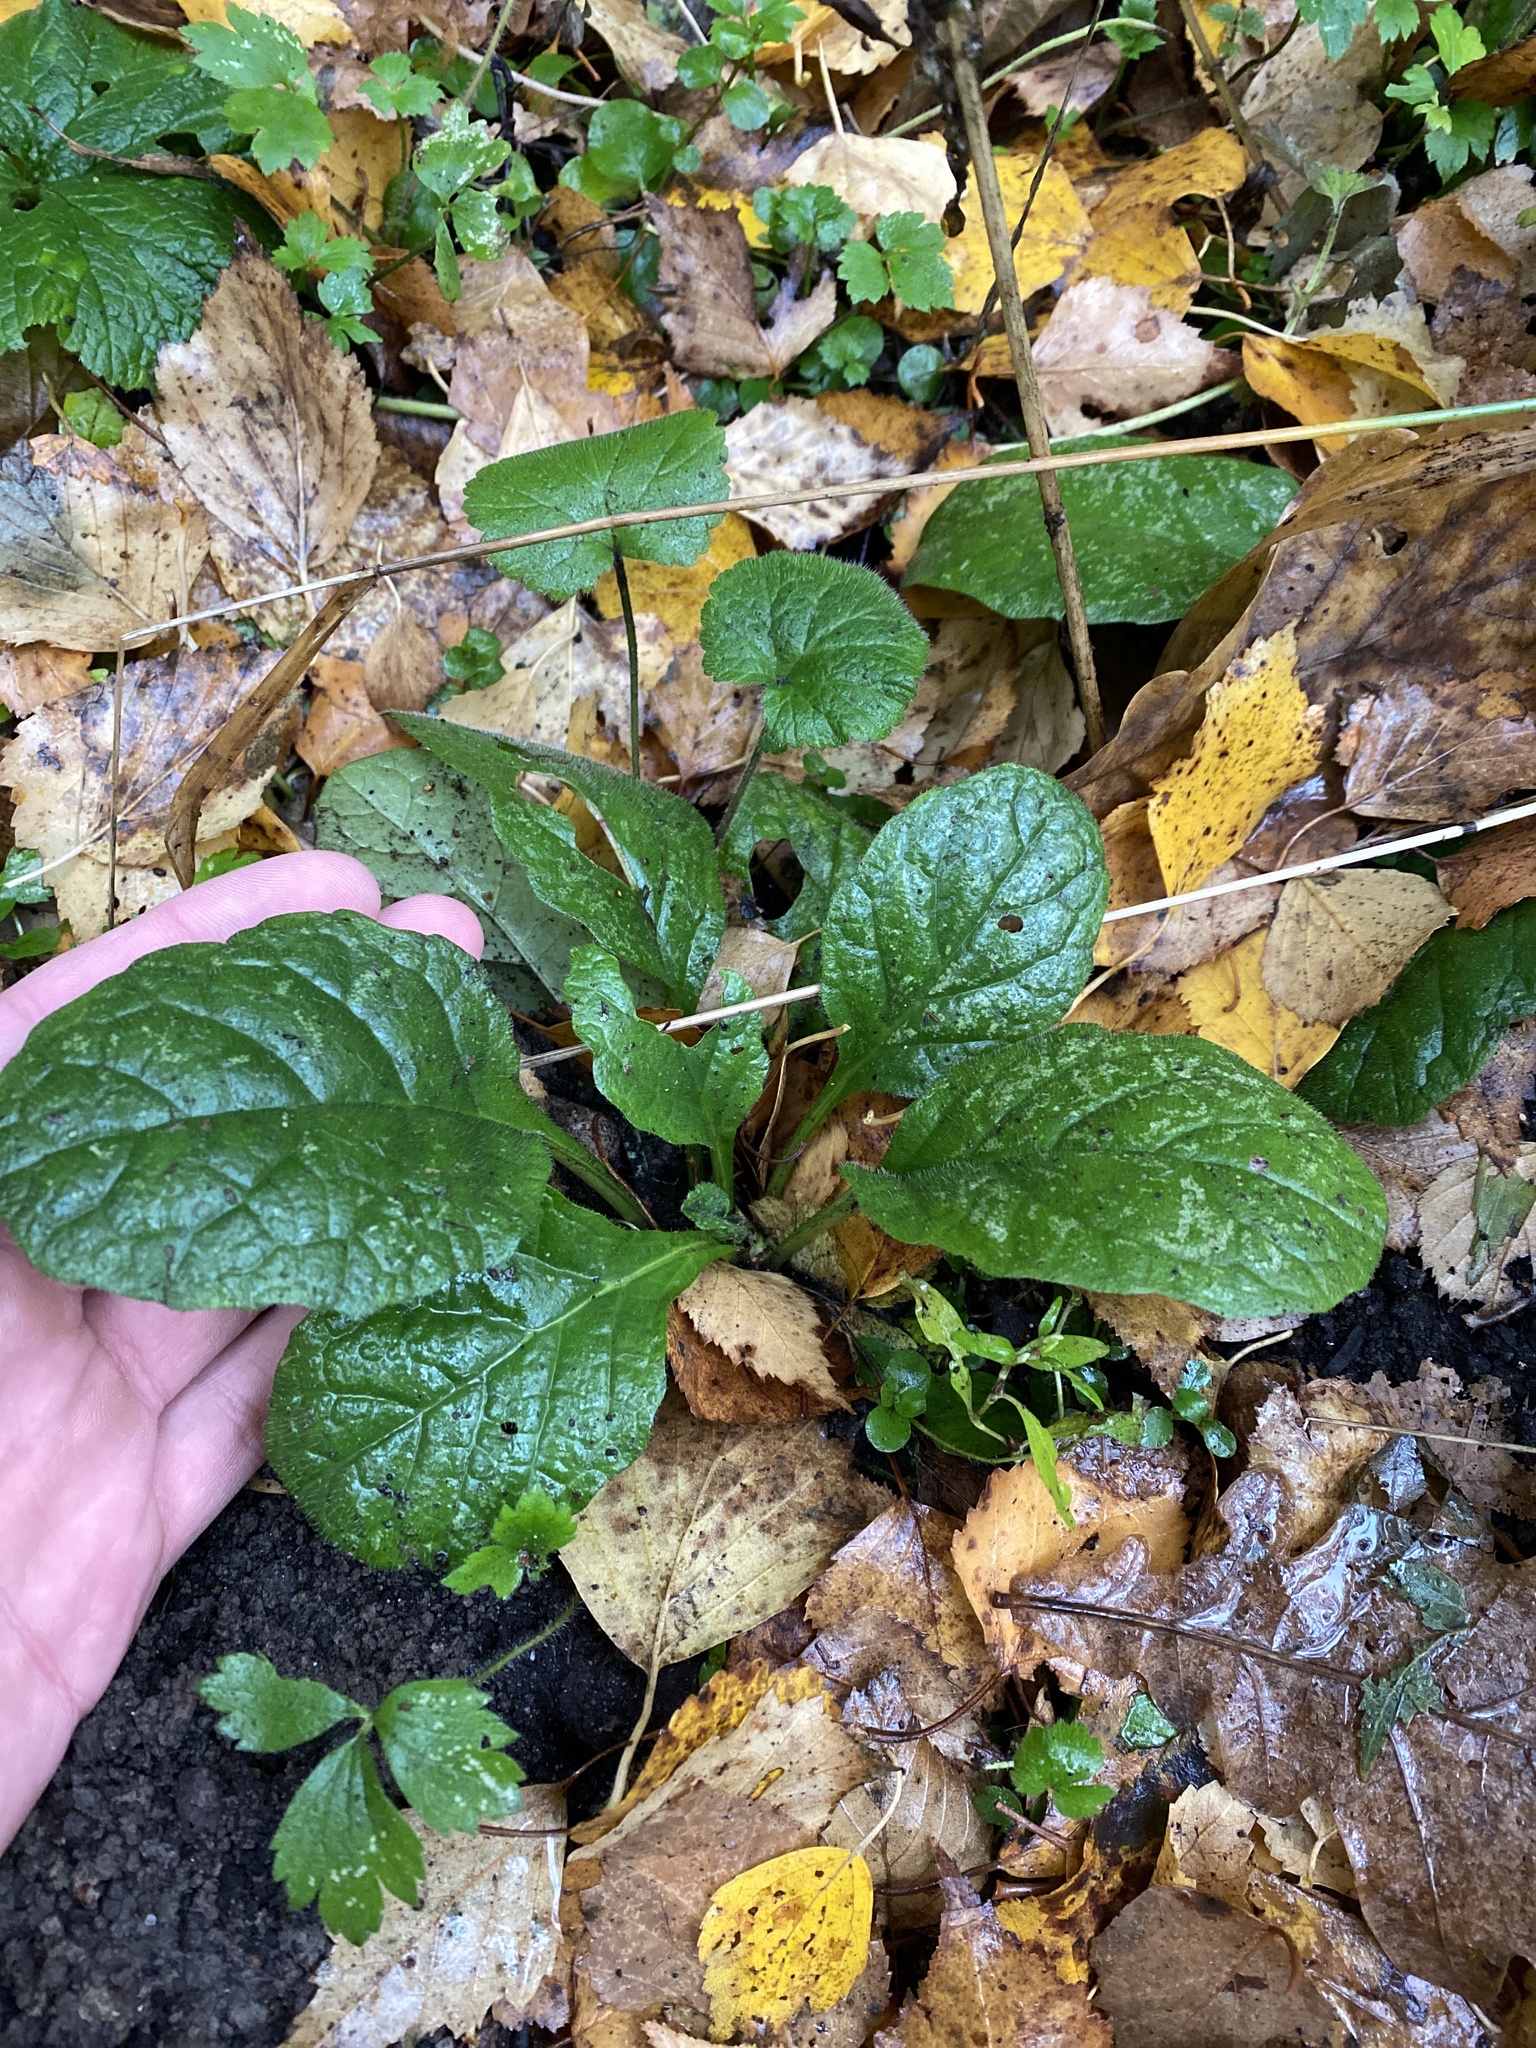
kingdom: Plantae
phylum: Tracheophyta
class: Magnoliopsida
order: Lamiales
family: Lamiaceae
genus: Ajuga
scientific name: Ajuga reptans
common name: Bugle
